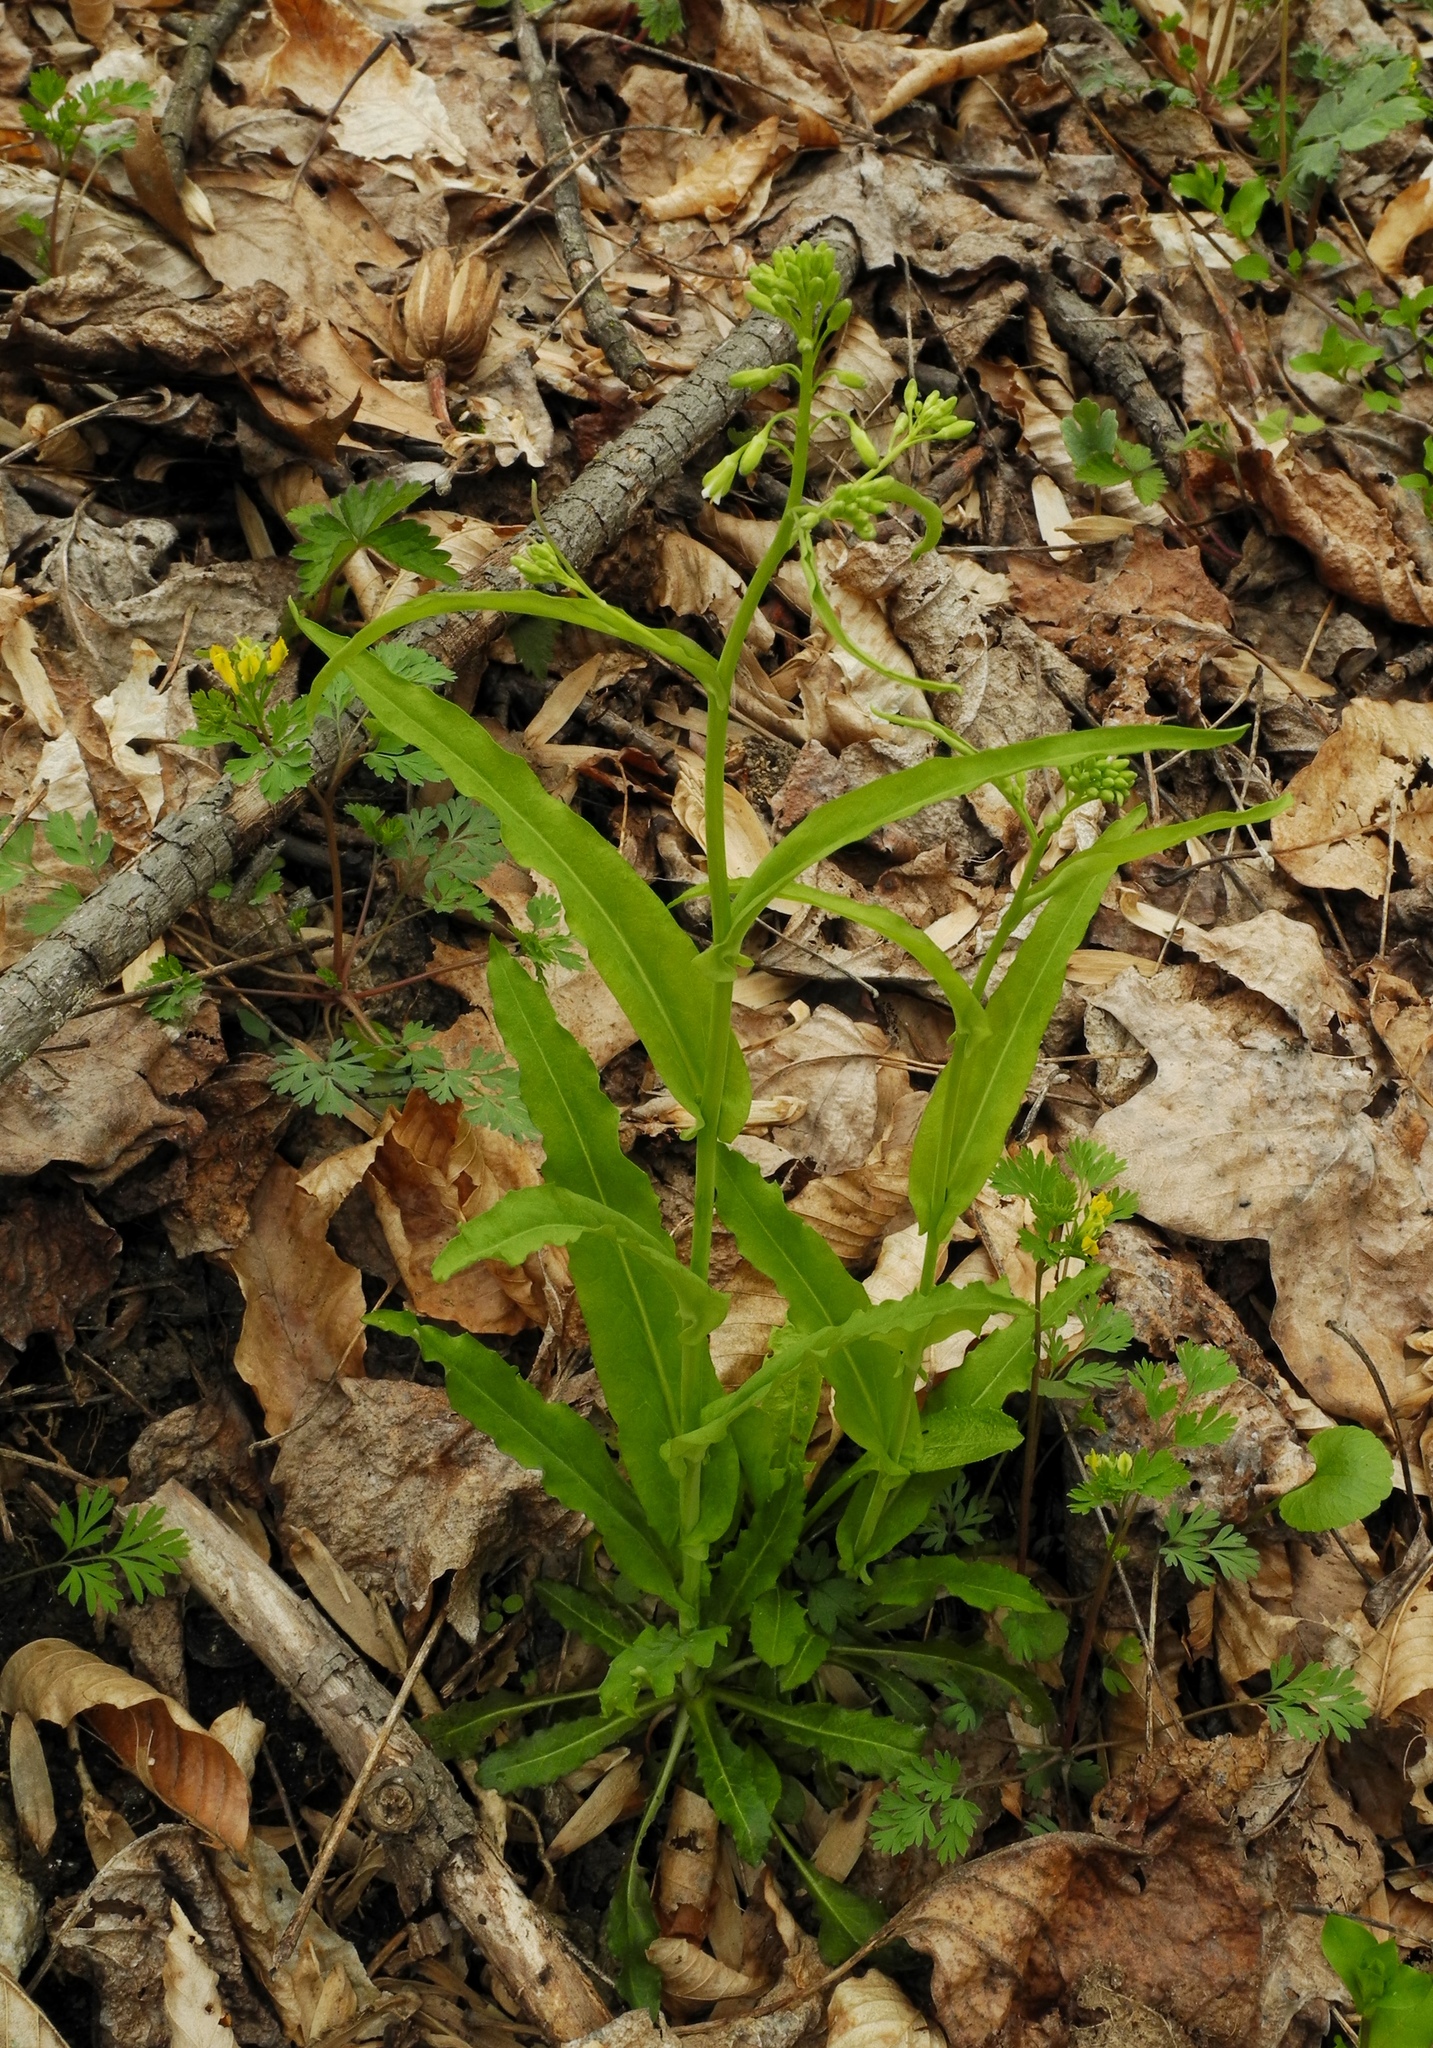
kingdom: Plantae
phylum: Tracheophyta
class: Magnoliopsida
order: Brassicales
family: Brassicaceae
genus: Borodinia
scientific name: Borodinia laevigata
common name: Smooth rockcress
